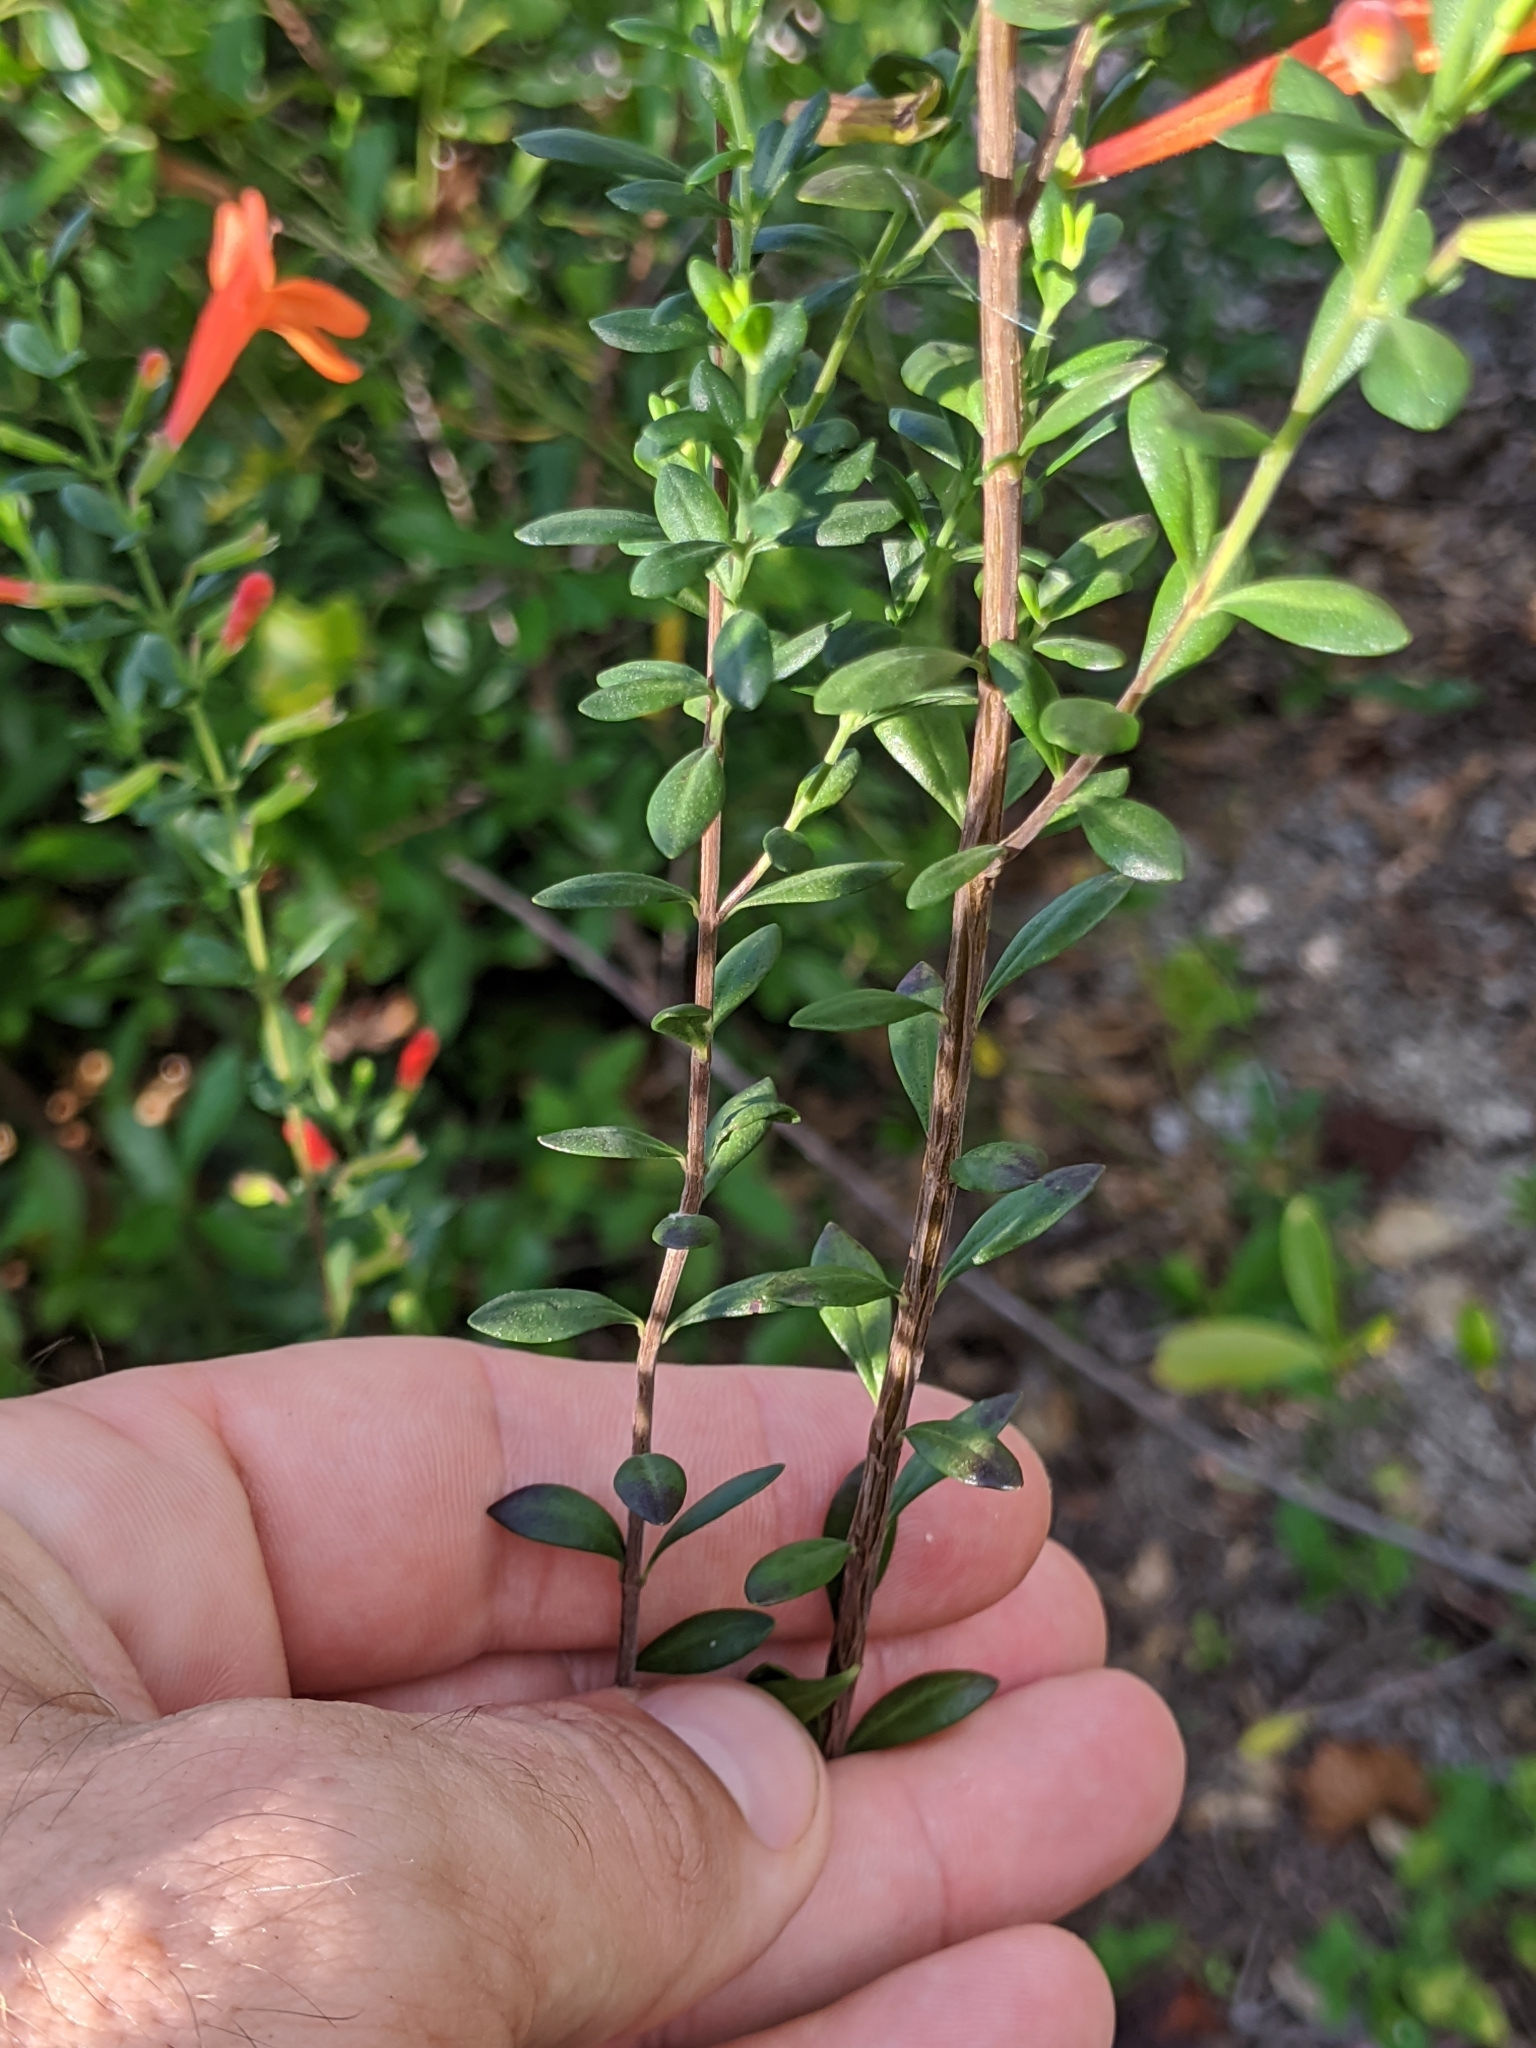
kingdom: Plantae
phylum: Tracheophyta
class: Magnoliopsida
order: Lamiales
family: Lamiaceae
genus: Clinopodium
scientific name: Clinopodium coccineum
